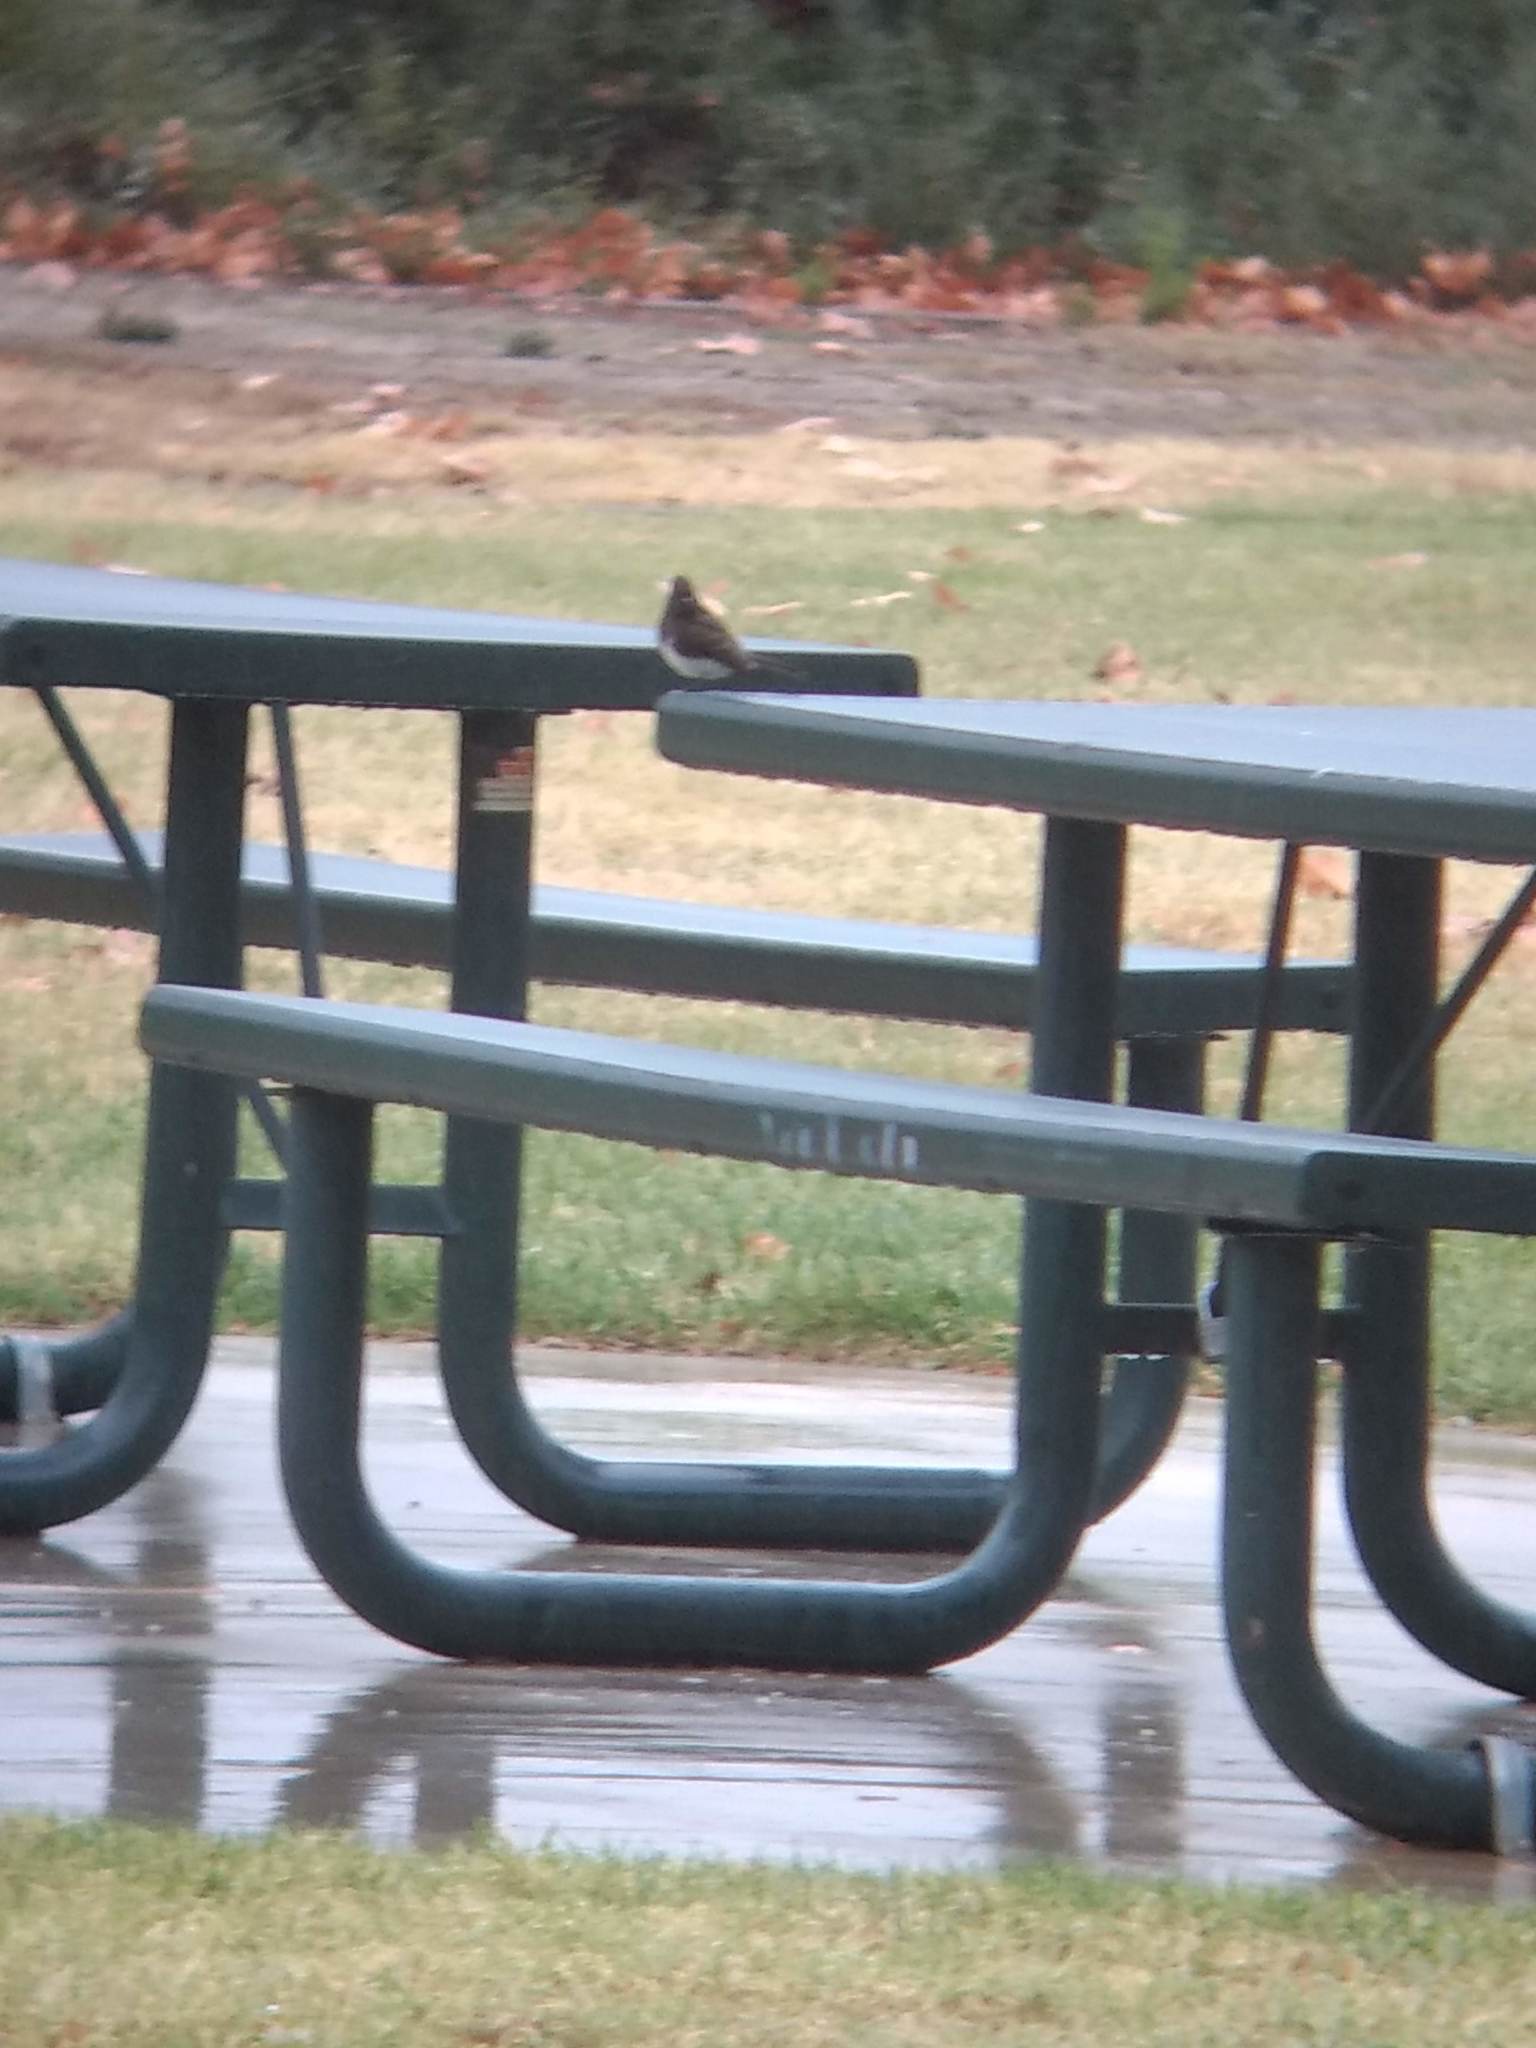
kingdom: Animalia
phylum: Chordata
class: Aves
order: Passeriformes
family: Tyrannidae
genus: Sayornis
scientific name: Sayornis nigricans
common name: Black phoebe
